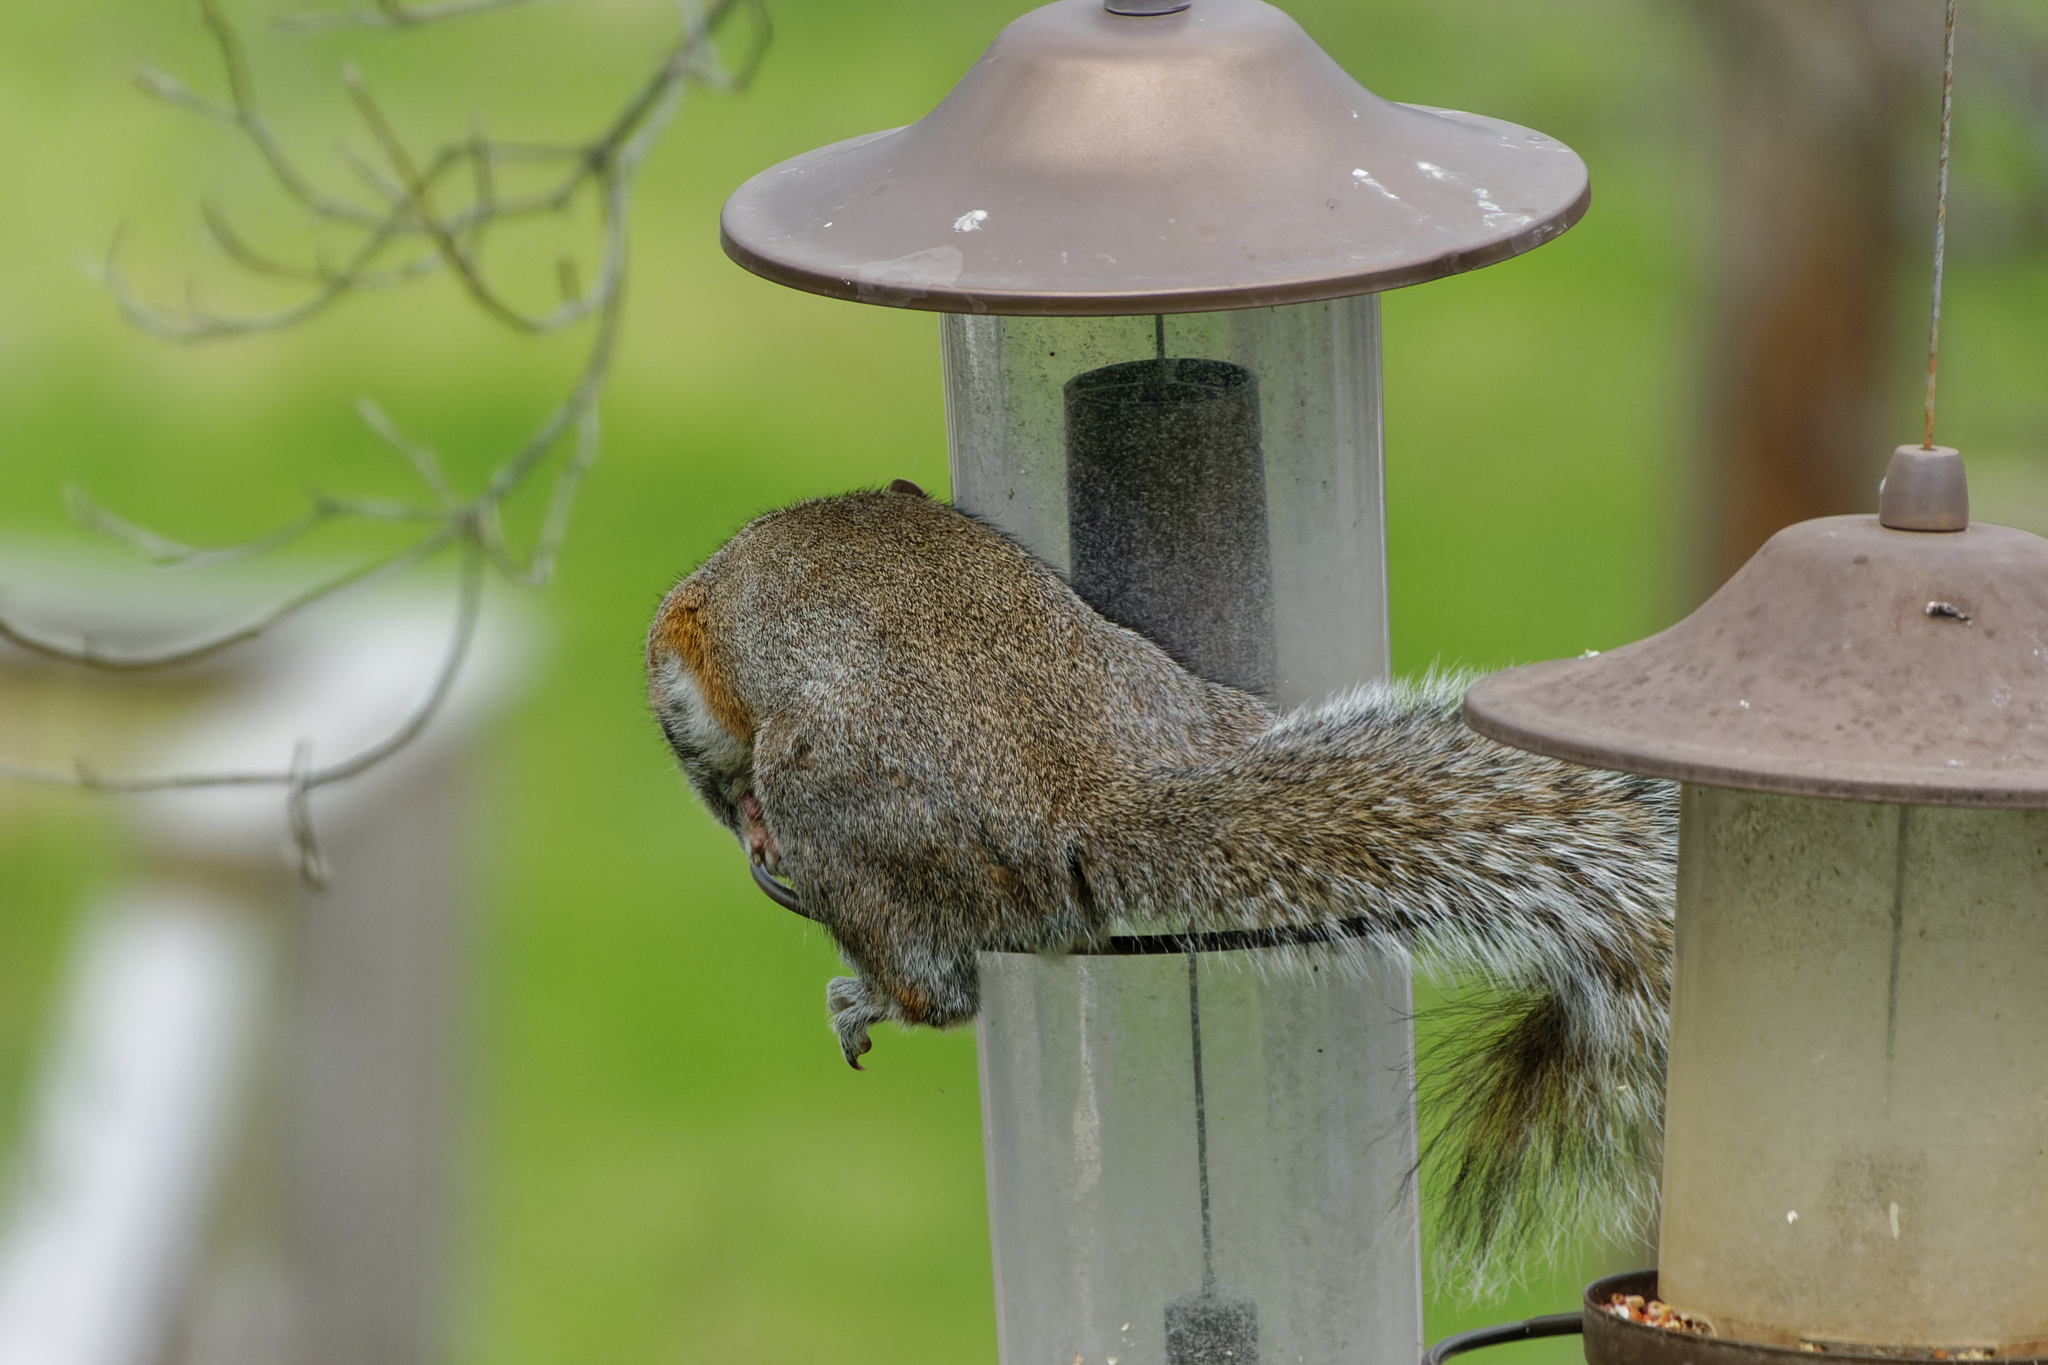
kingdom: Animalia
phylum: Chordata
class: Mammalia
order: Rodentia
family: Sciuridae
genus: Sciurus
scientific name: Sciurus carolinensis
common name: Eastern gray squirrel
